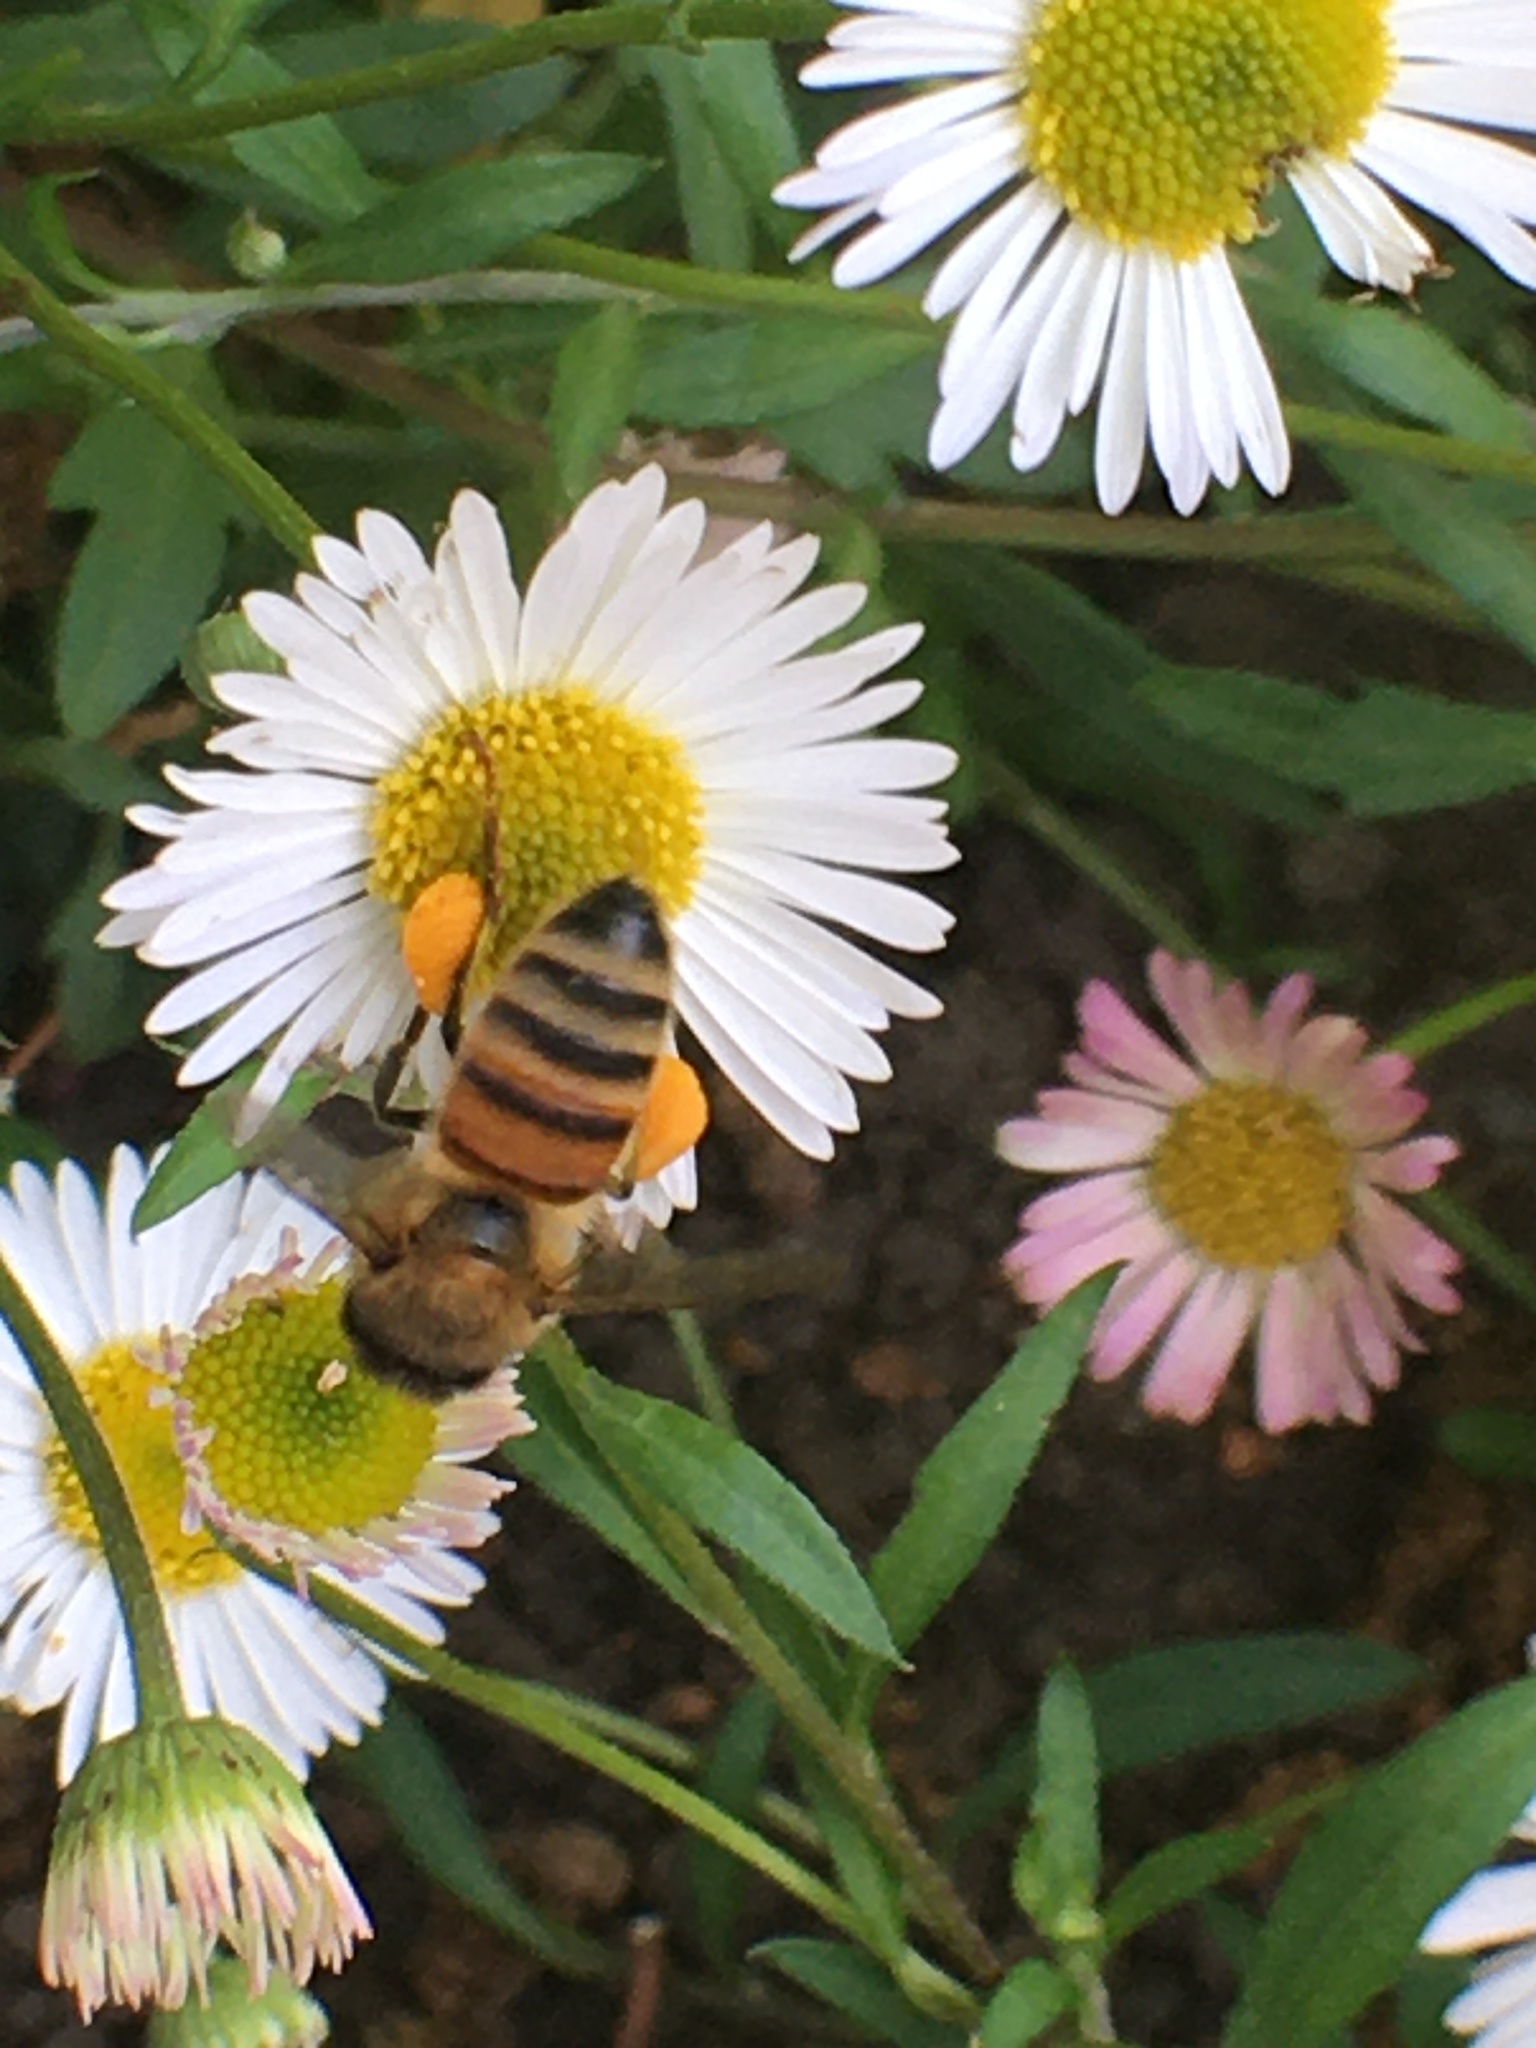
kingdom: Plantae
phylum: Tracheophyta
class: Magnoliopsida
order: Asterales
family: Asteraceae
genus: Erigeron
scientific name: Erigeron karvinskianus
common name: Mexican fleabane
